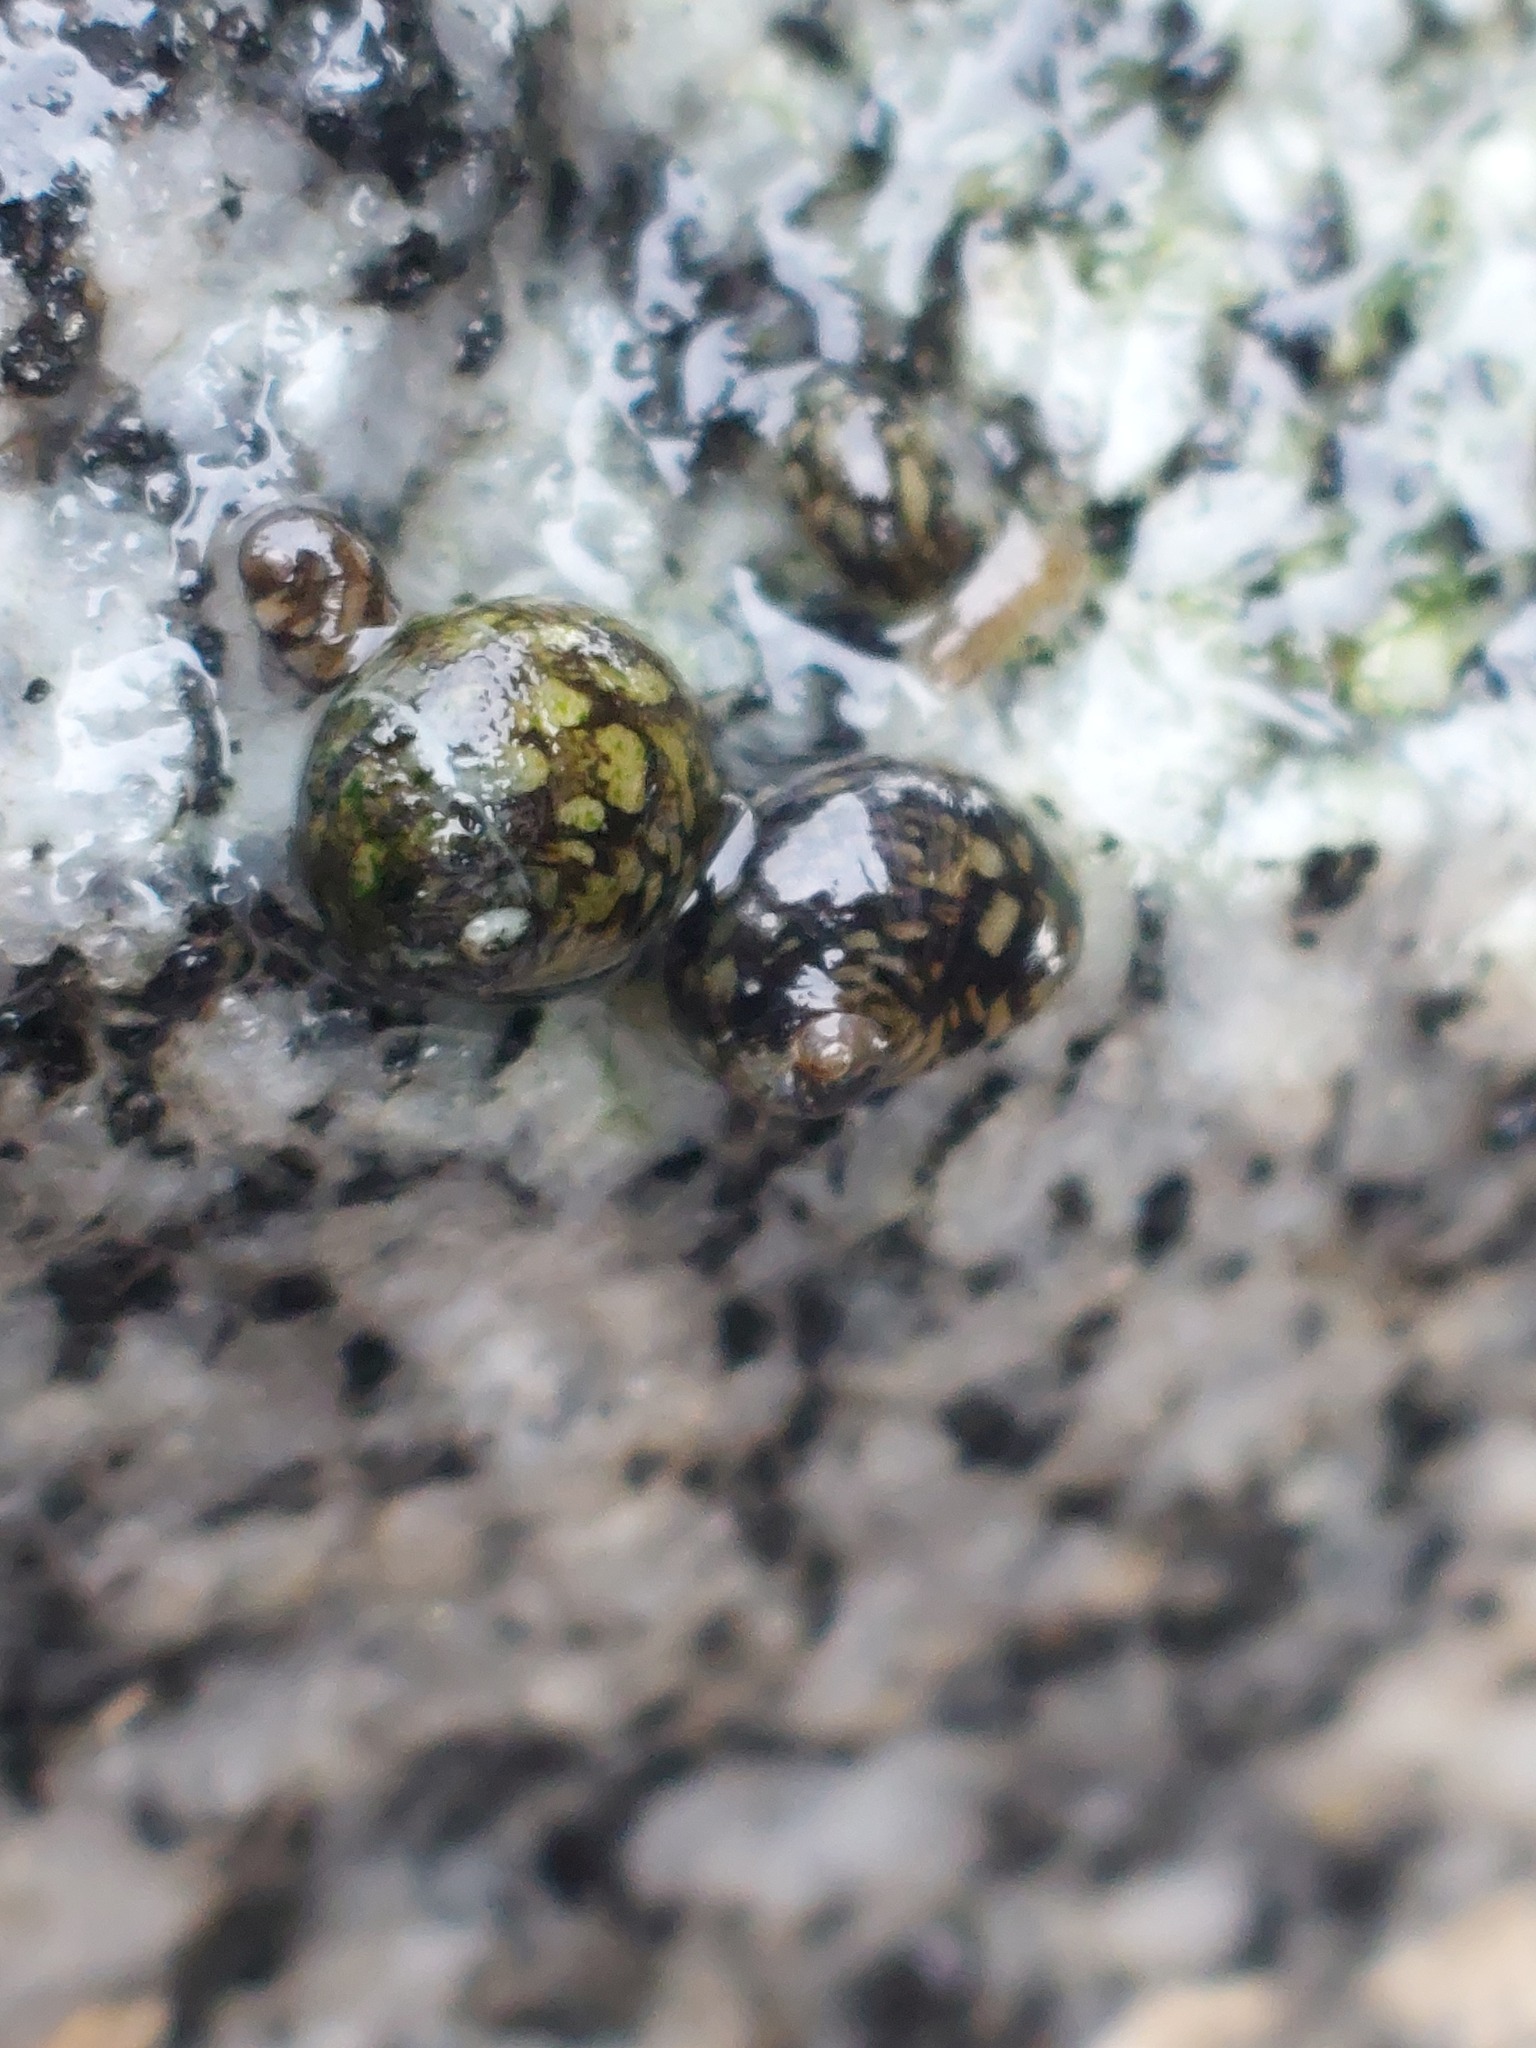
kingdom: Animalia
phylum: Mollusca
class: Gastropoda
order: Cycloneritida
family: Neritidae
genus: Theodoxus
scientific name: Theodoxus fluviatilis
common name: River nerite
